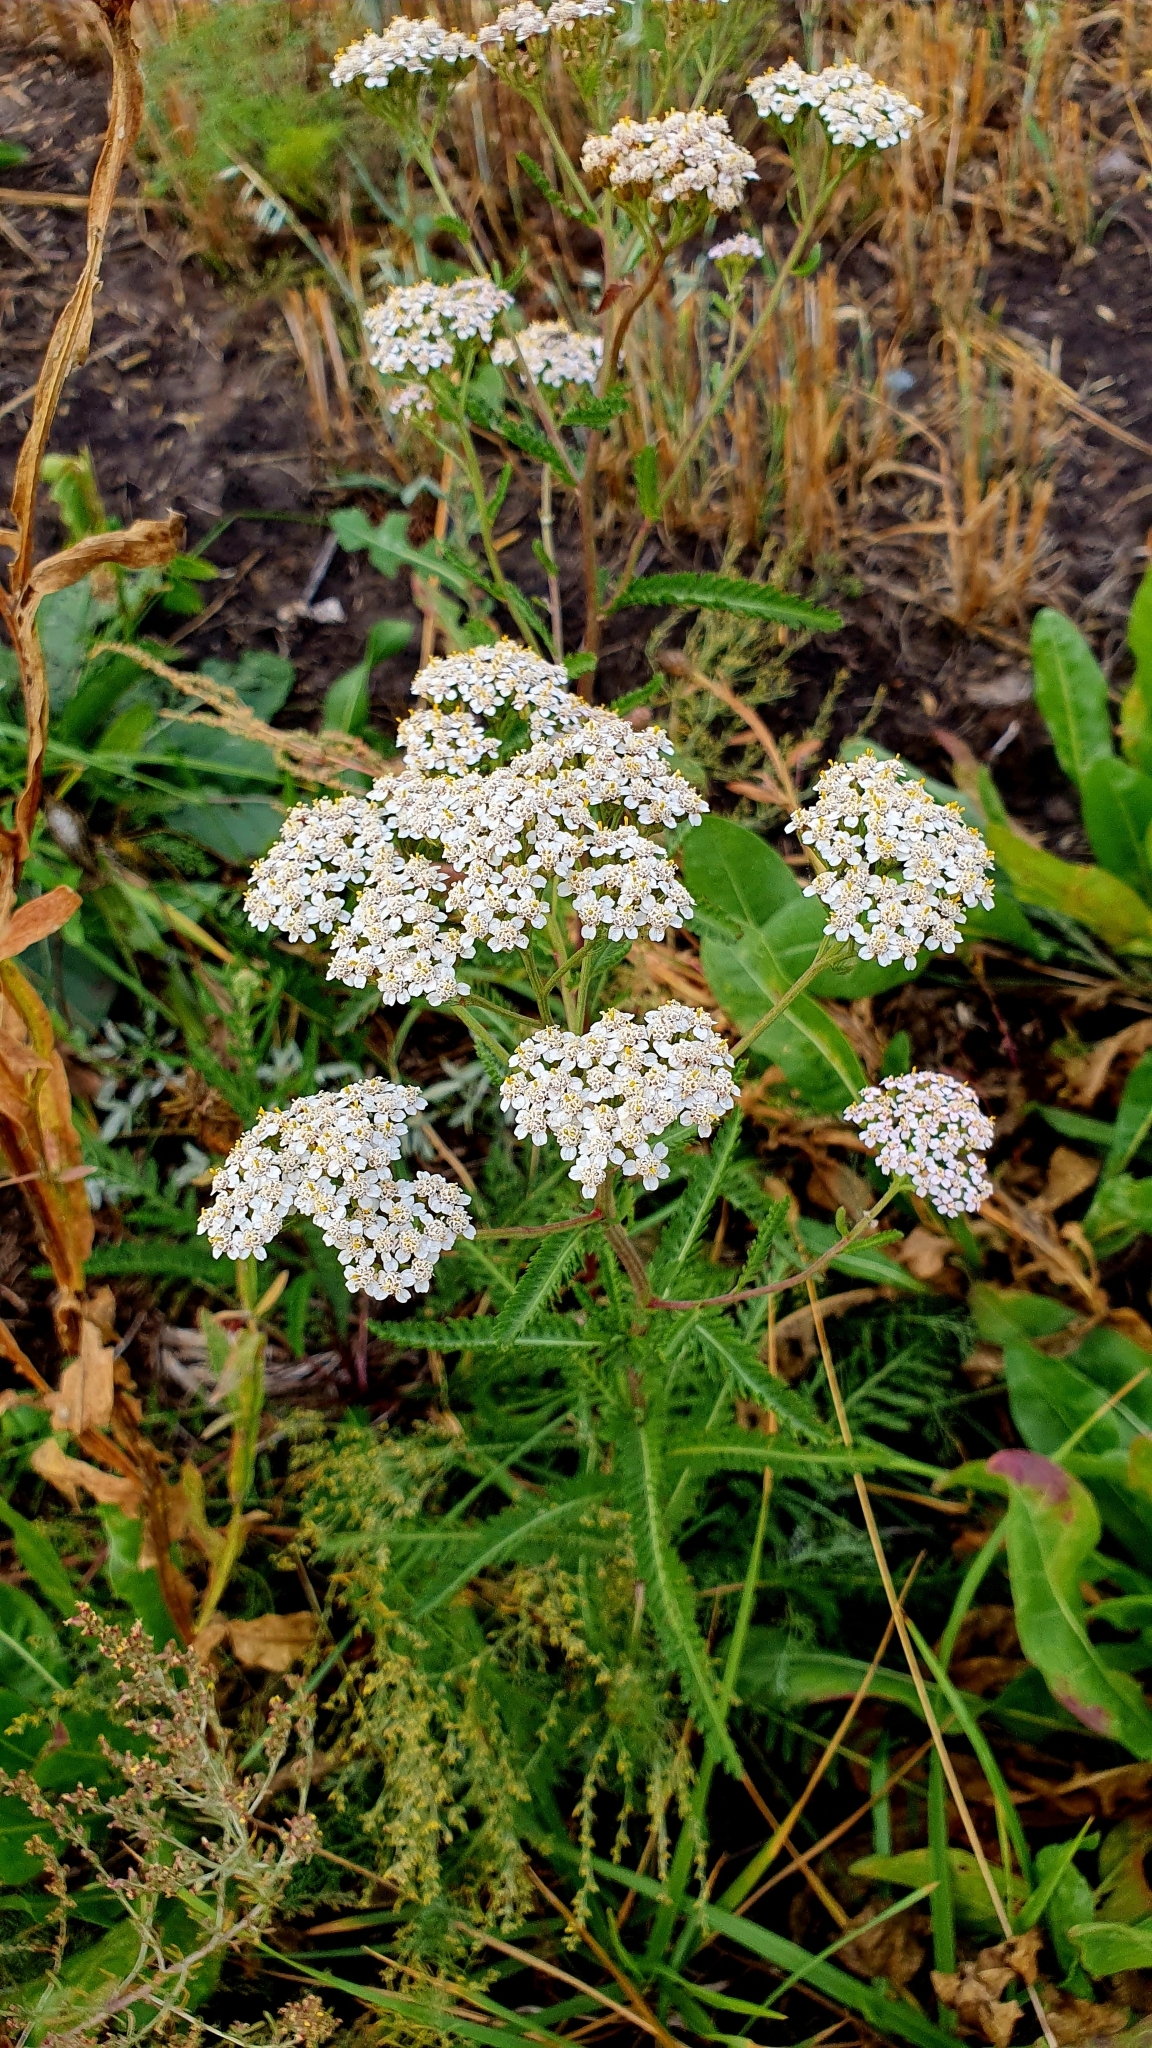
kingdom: Plantae
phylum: Tracheophyta
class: Magnoliopsida
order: Asterales
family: Asteraceae
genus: Achillea
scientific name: Achillea millefolium
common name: Yarrow
